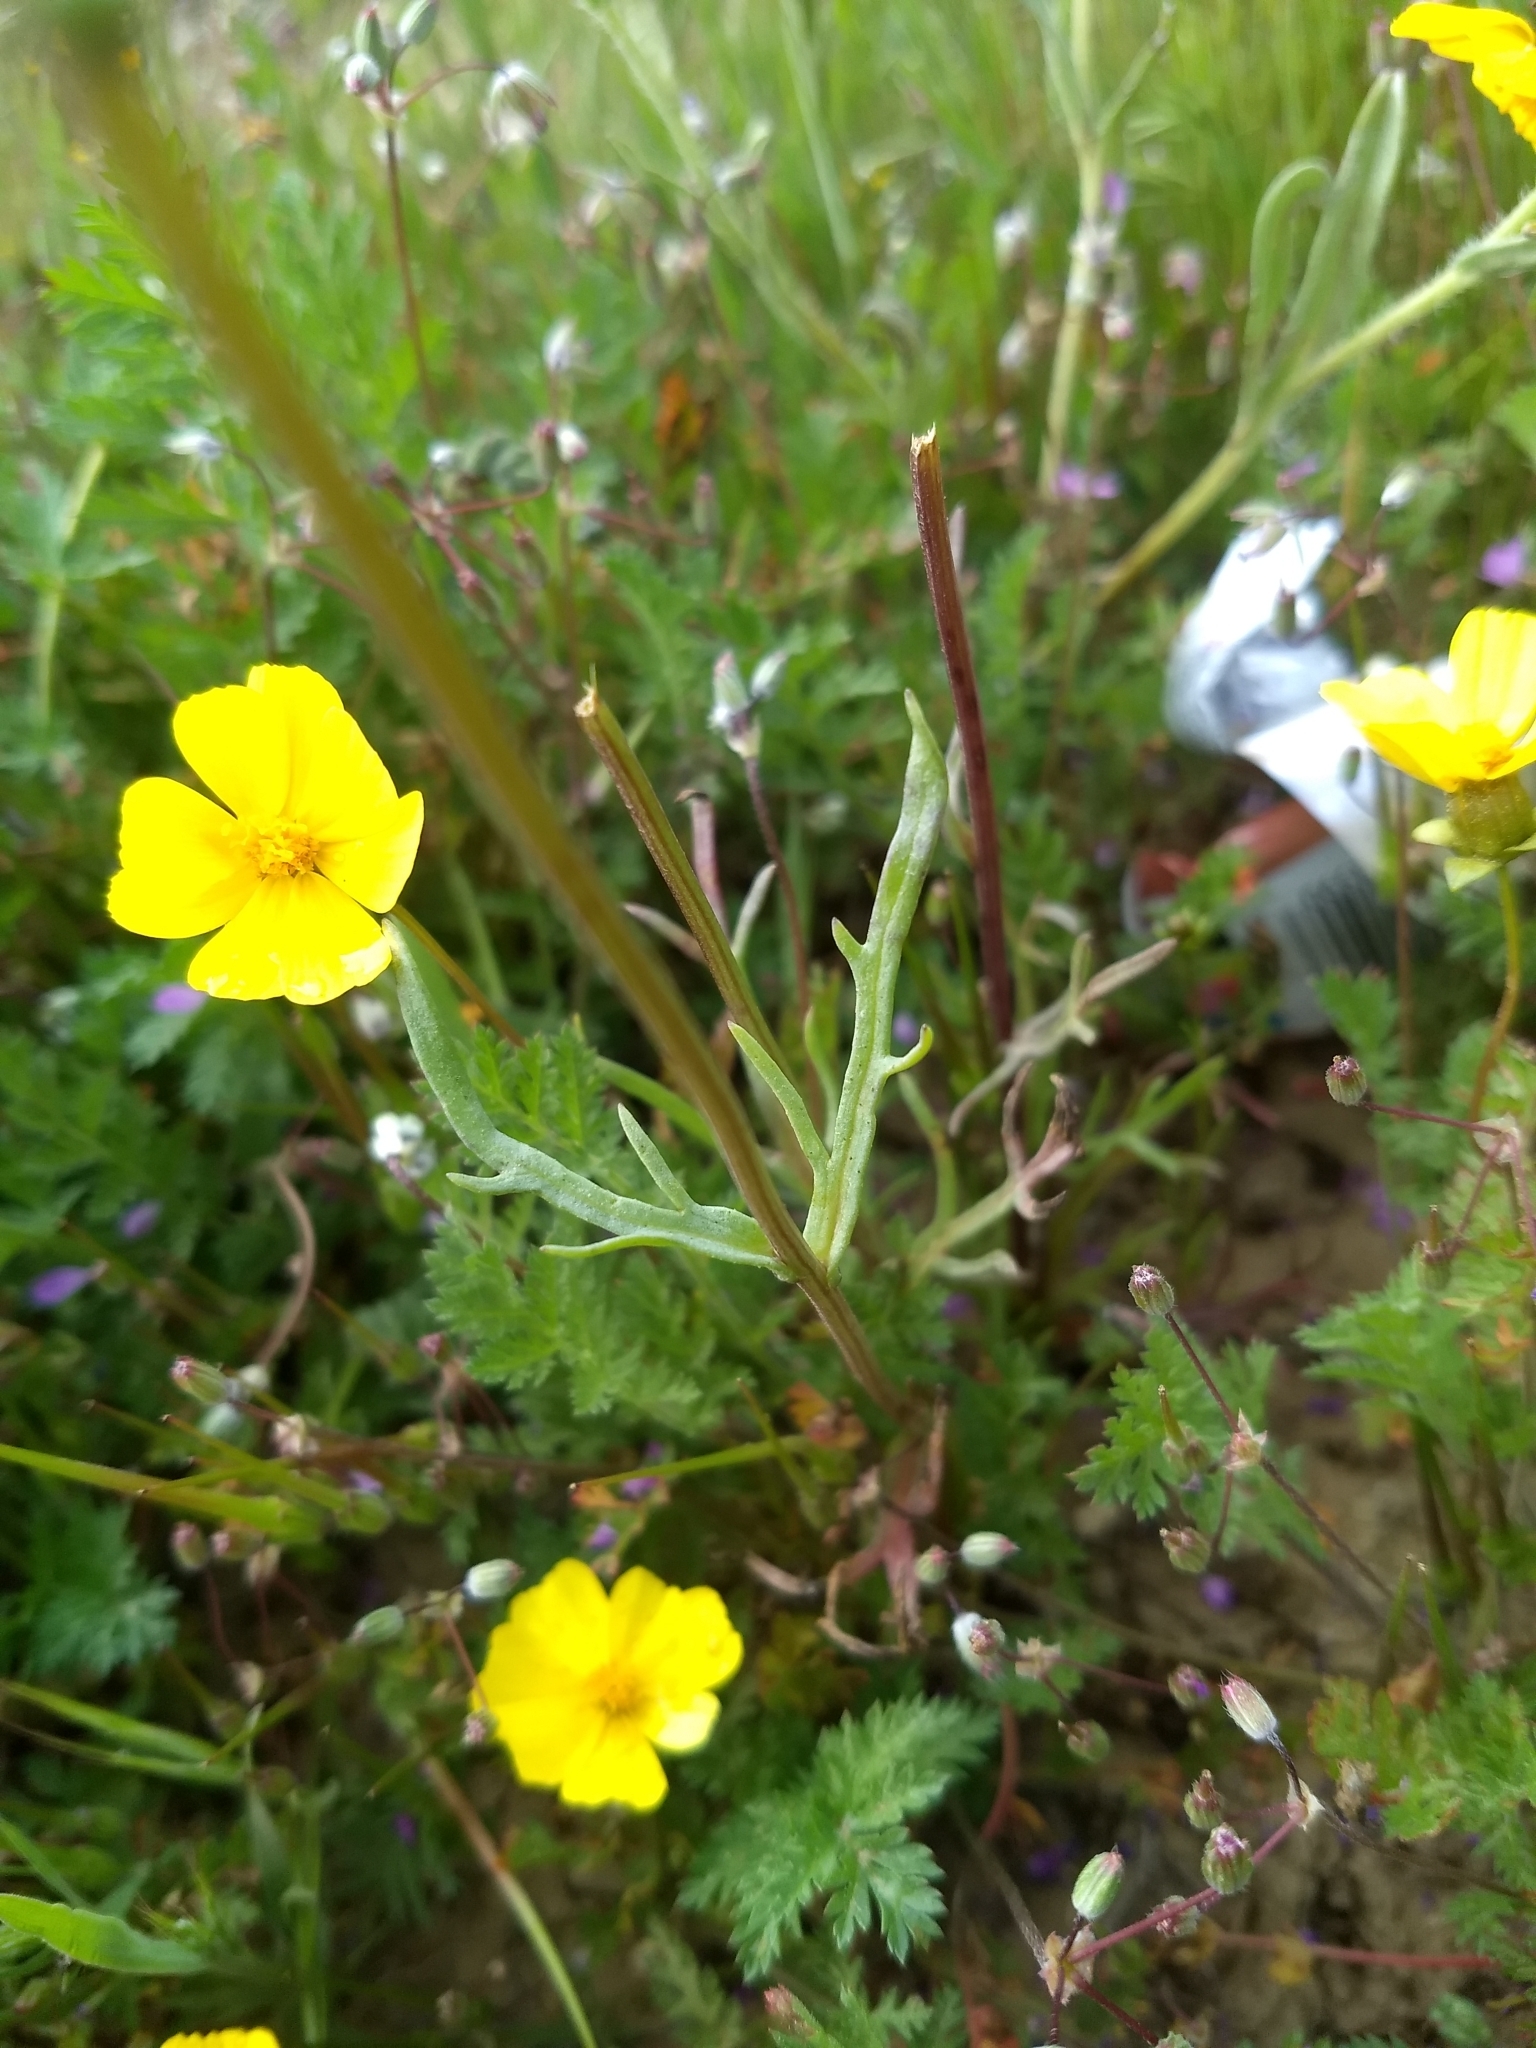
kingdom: Plantae
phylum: Tracheophyta
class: Magnoliopsida
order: Asterales
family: Asteraceae
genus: Coreopsis
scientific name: Coreopsis calliopsidea
